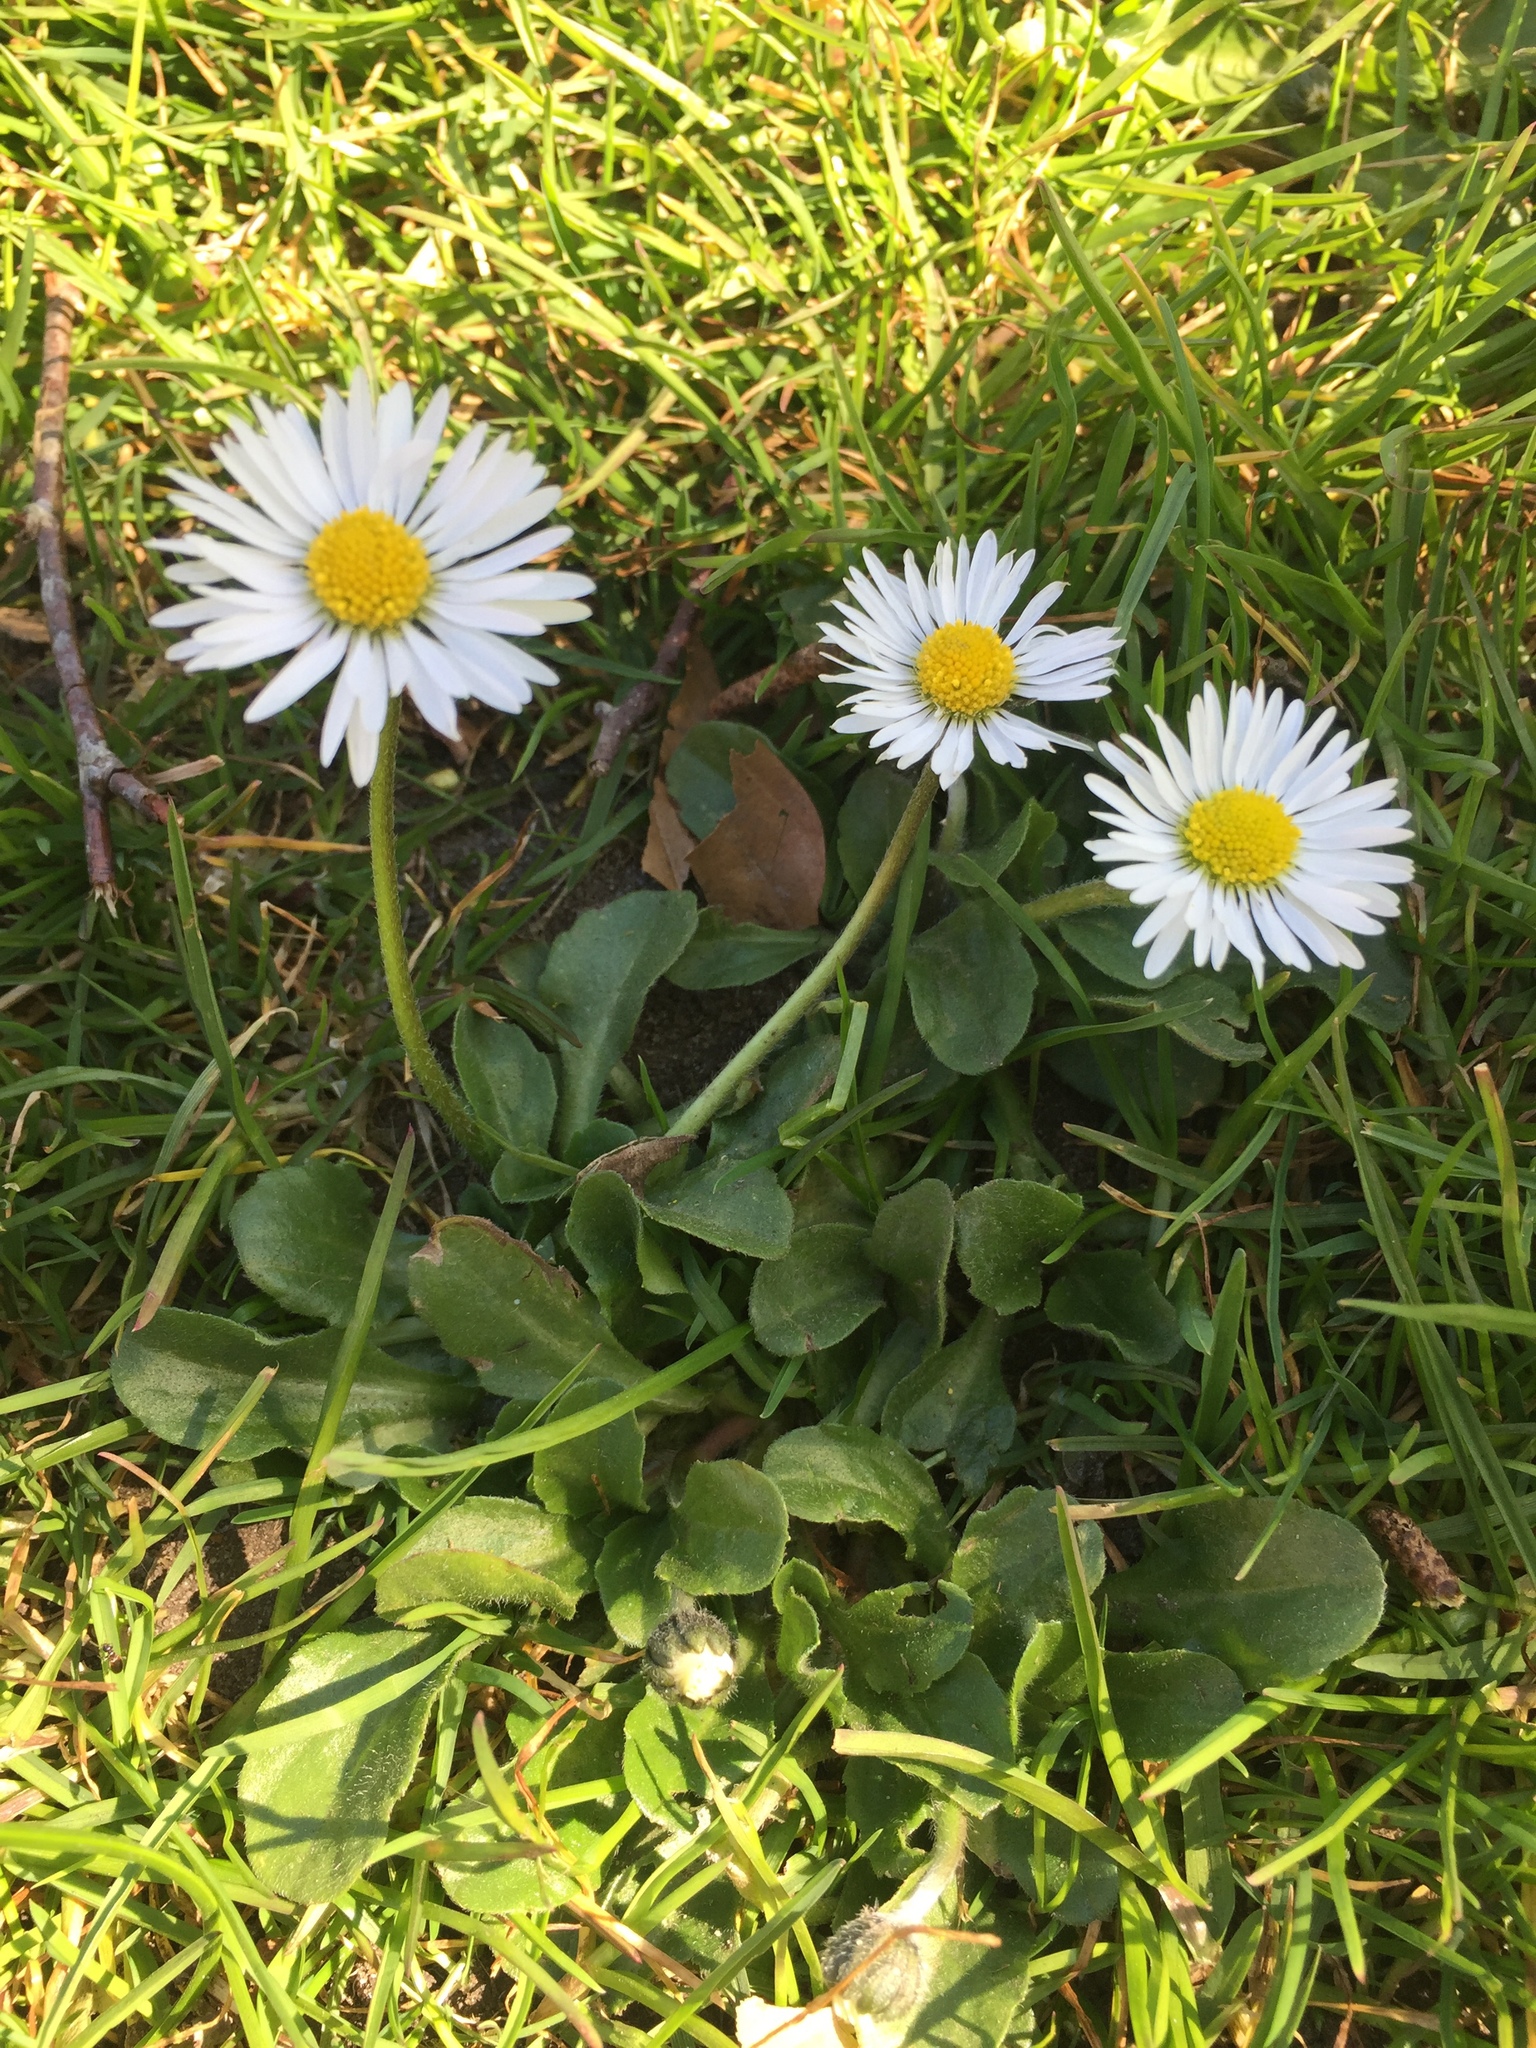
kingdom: Plantae
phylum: Tracheophyta
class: Magnoliopsida
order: Asterales
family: Asteraceae
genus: Bellis
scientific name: Bellis perennis
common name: Lawndaisy
